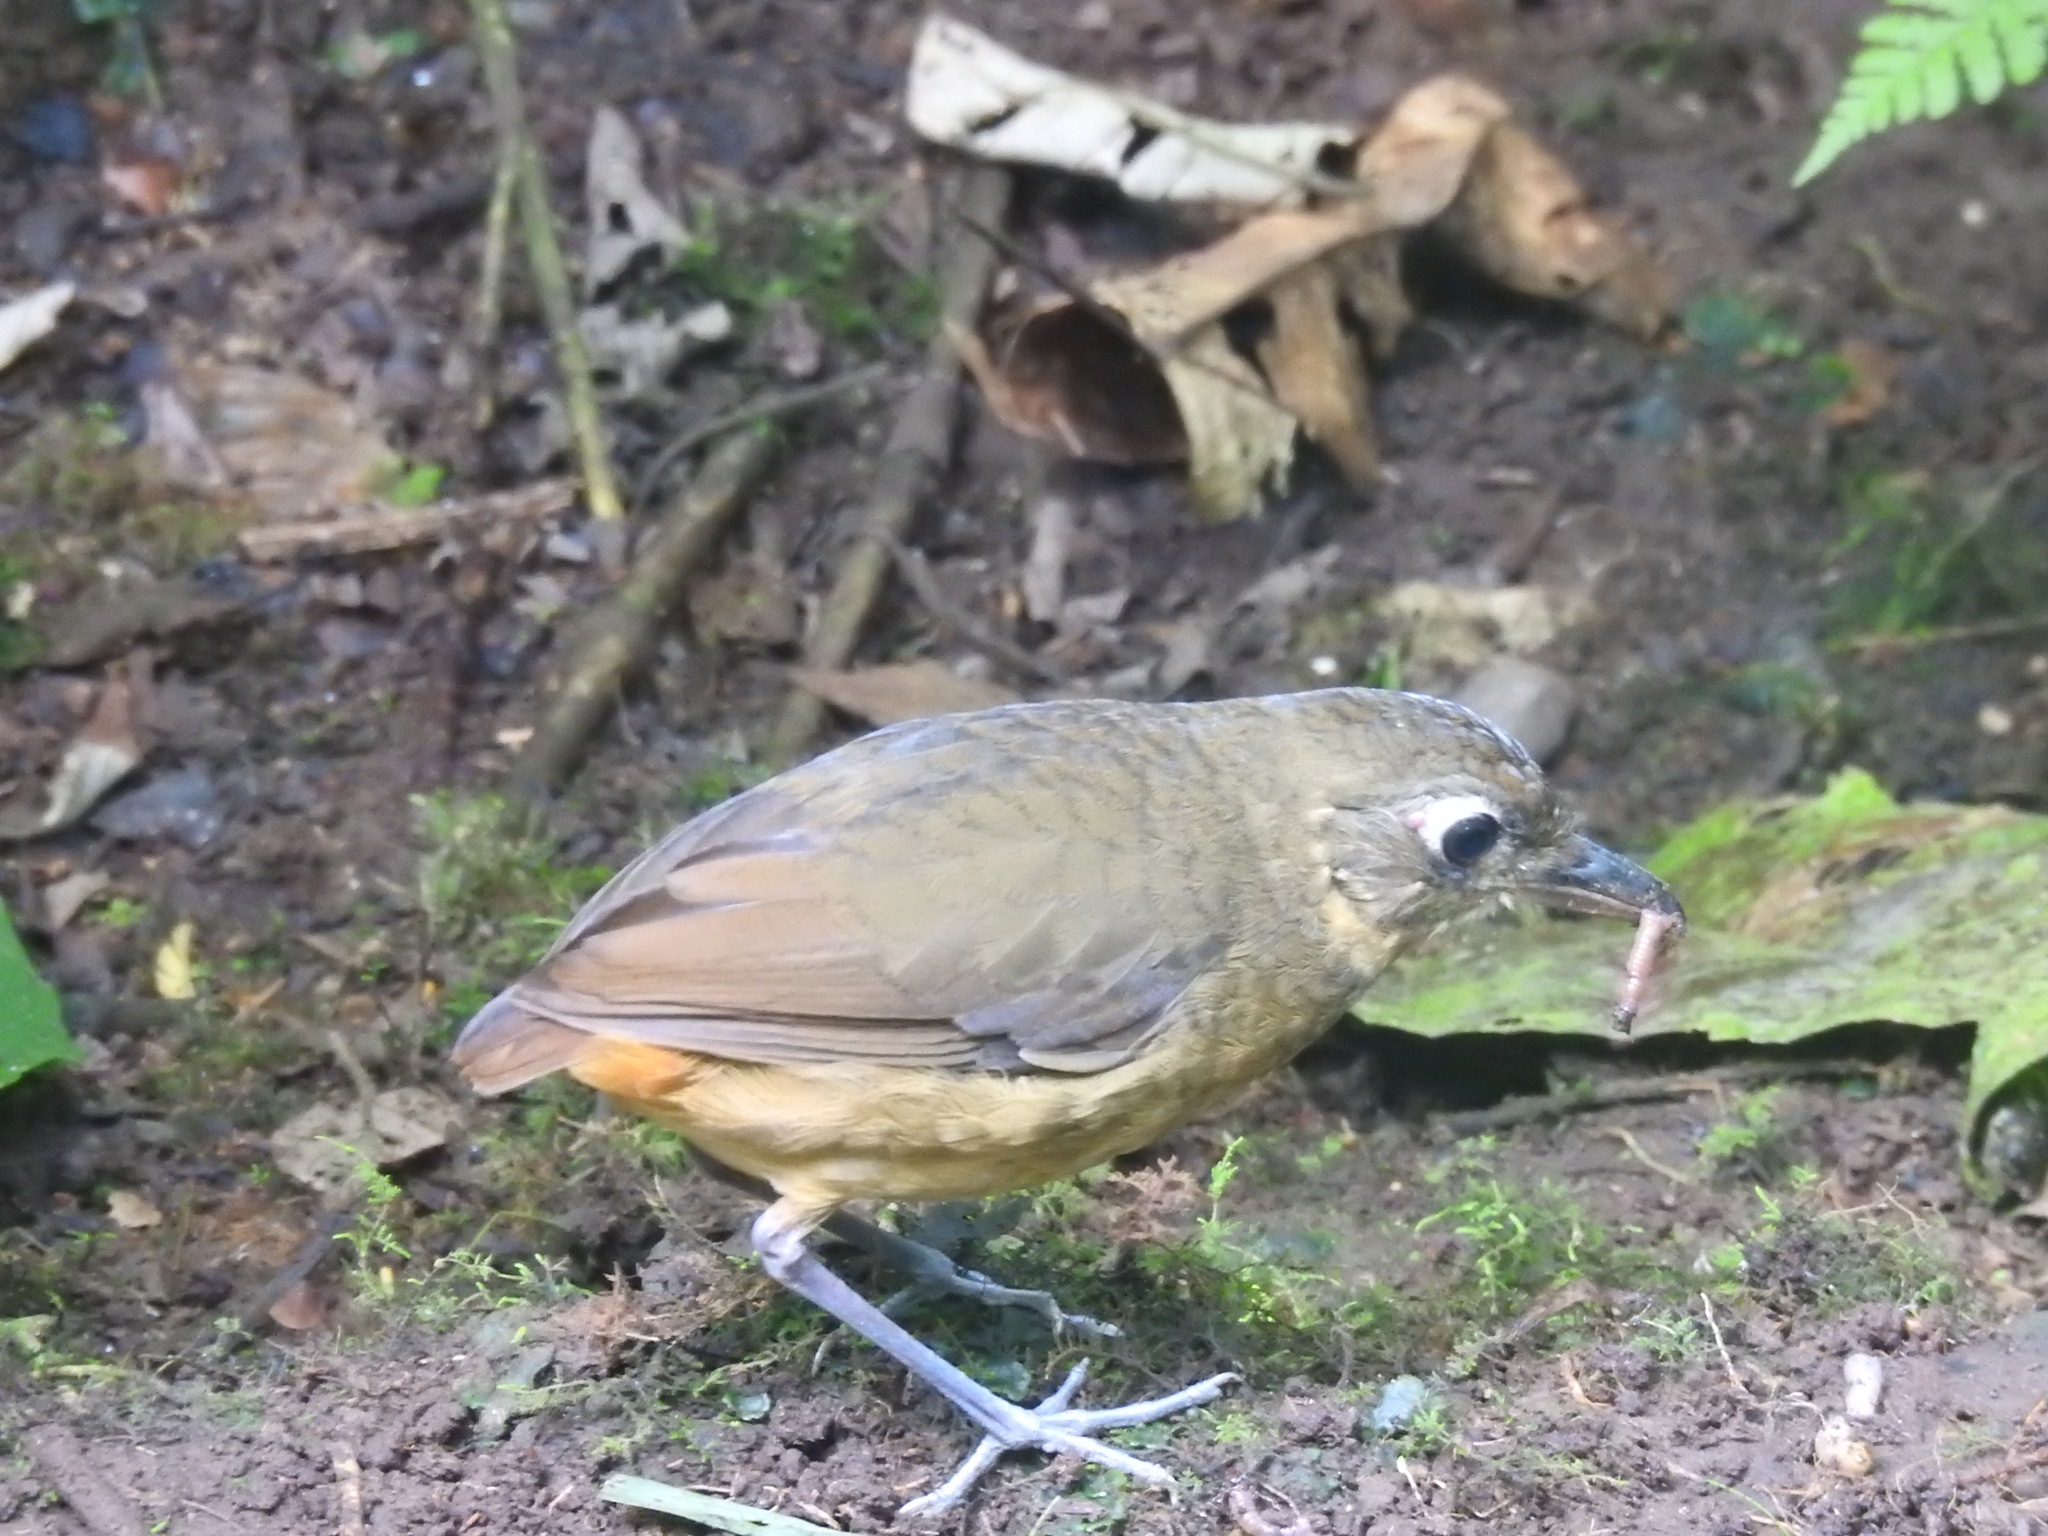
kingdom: Animalia
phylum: Chordata
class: Aves
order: Passeriformes
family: Grallariidae
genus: Grallaria
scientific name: Grallaria haplonota
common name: Plain-backed antpitta
